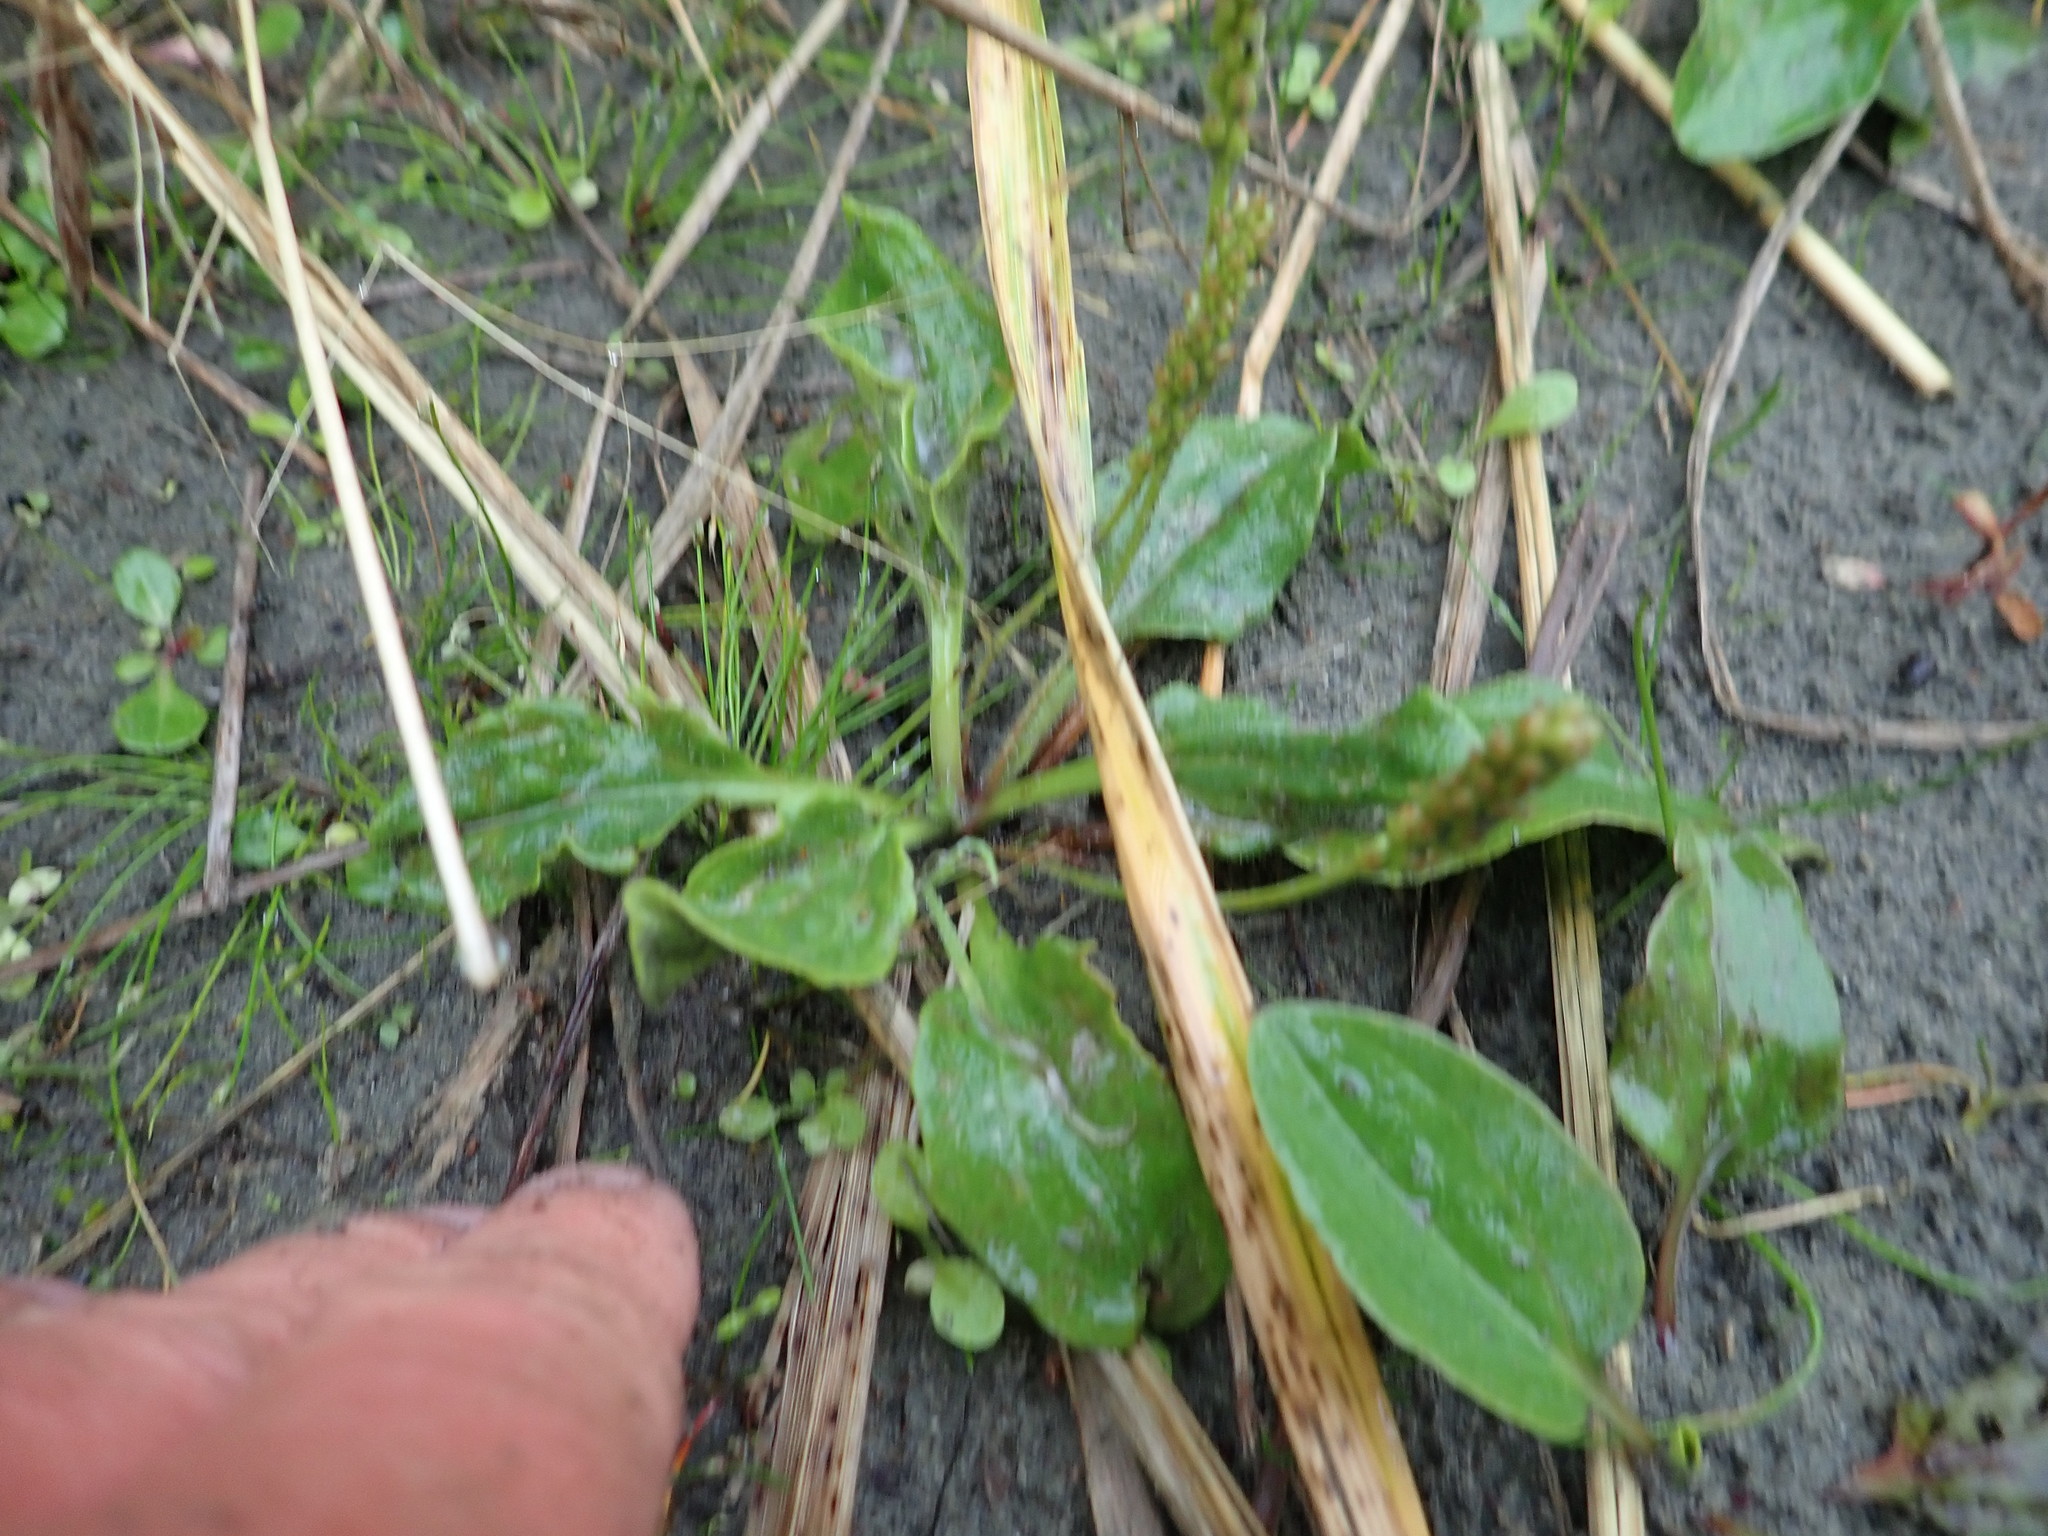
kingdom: Plantae
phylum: Tracheophyta
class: Magnoliopsida
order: Lamiales
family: Plantaginaceae
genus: Plantago
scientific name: Plantago australis
